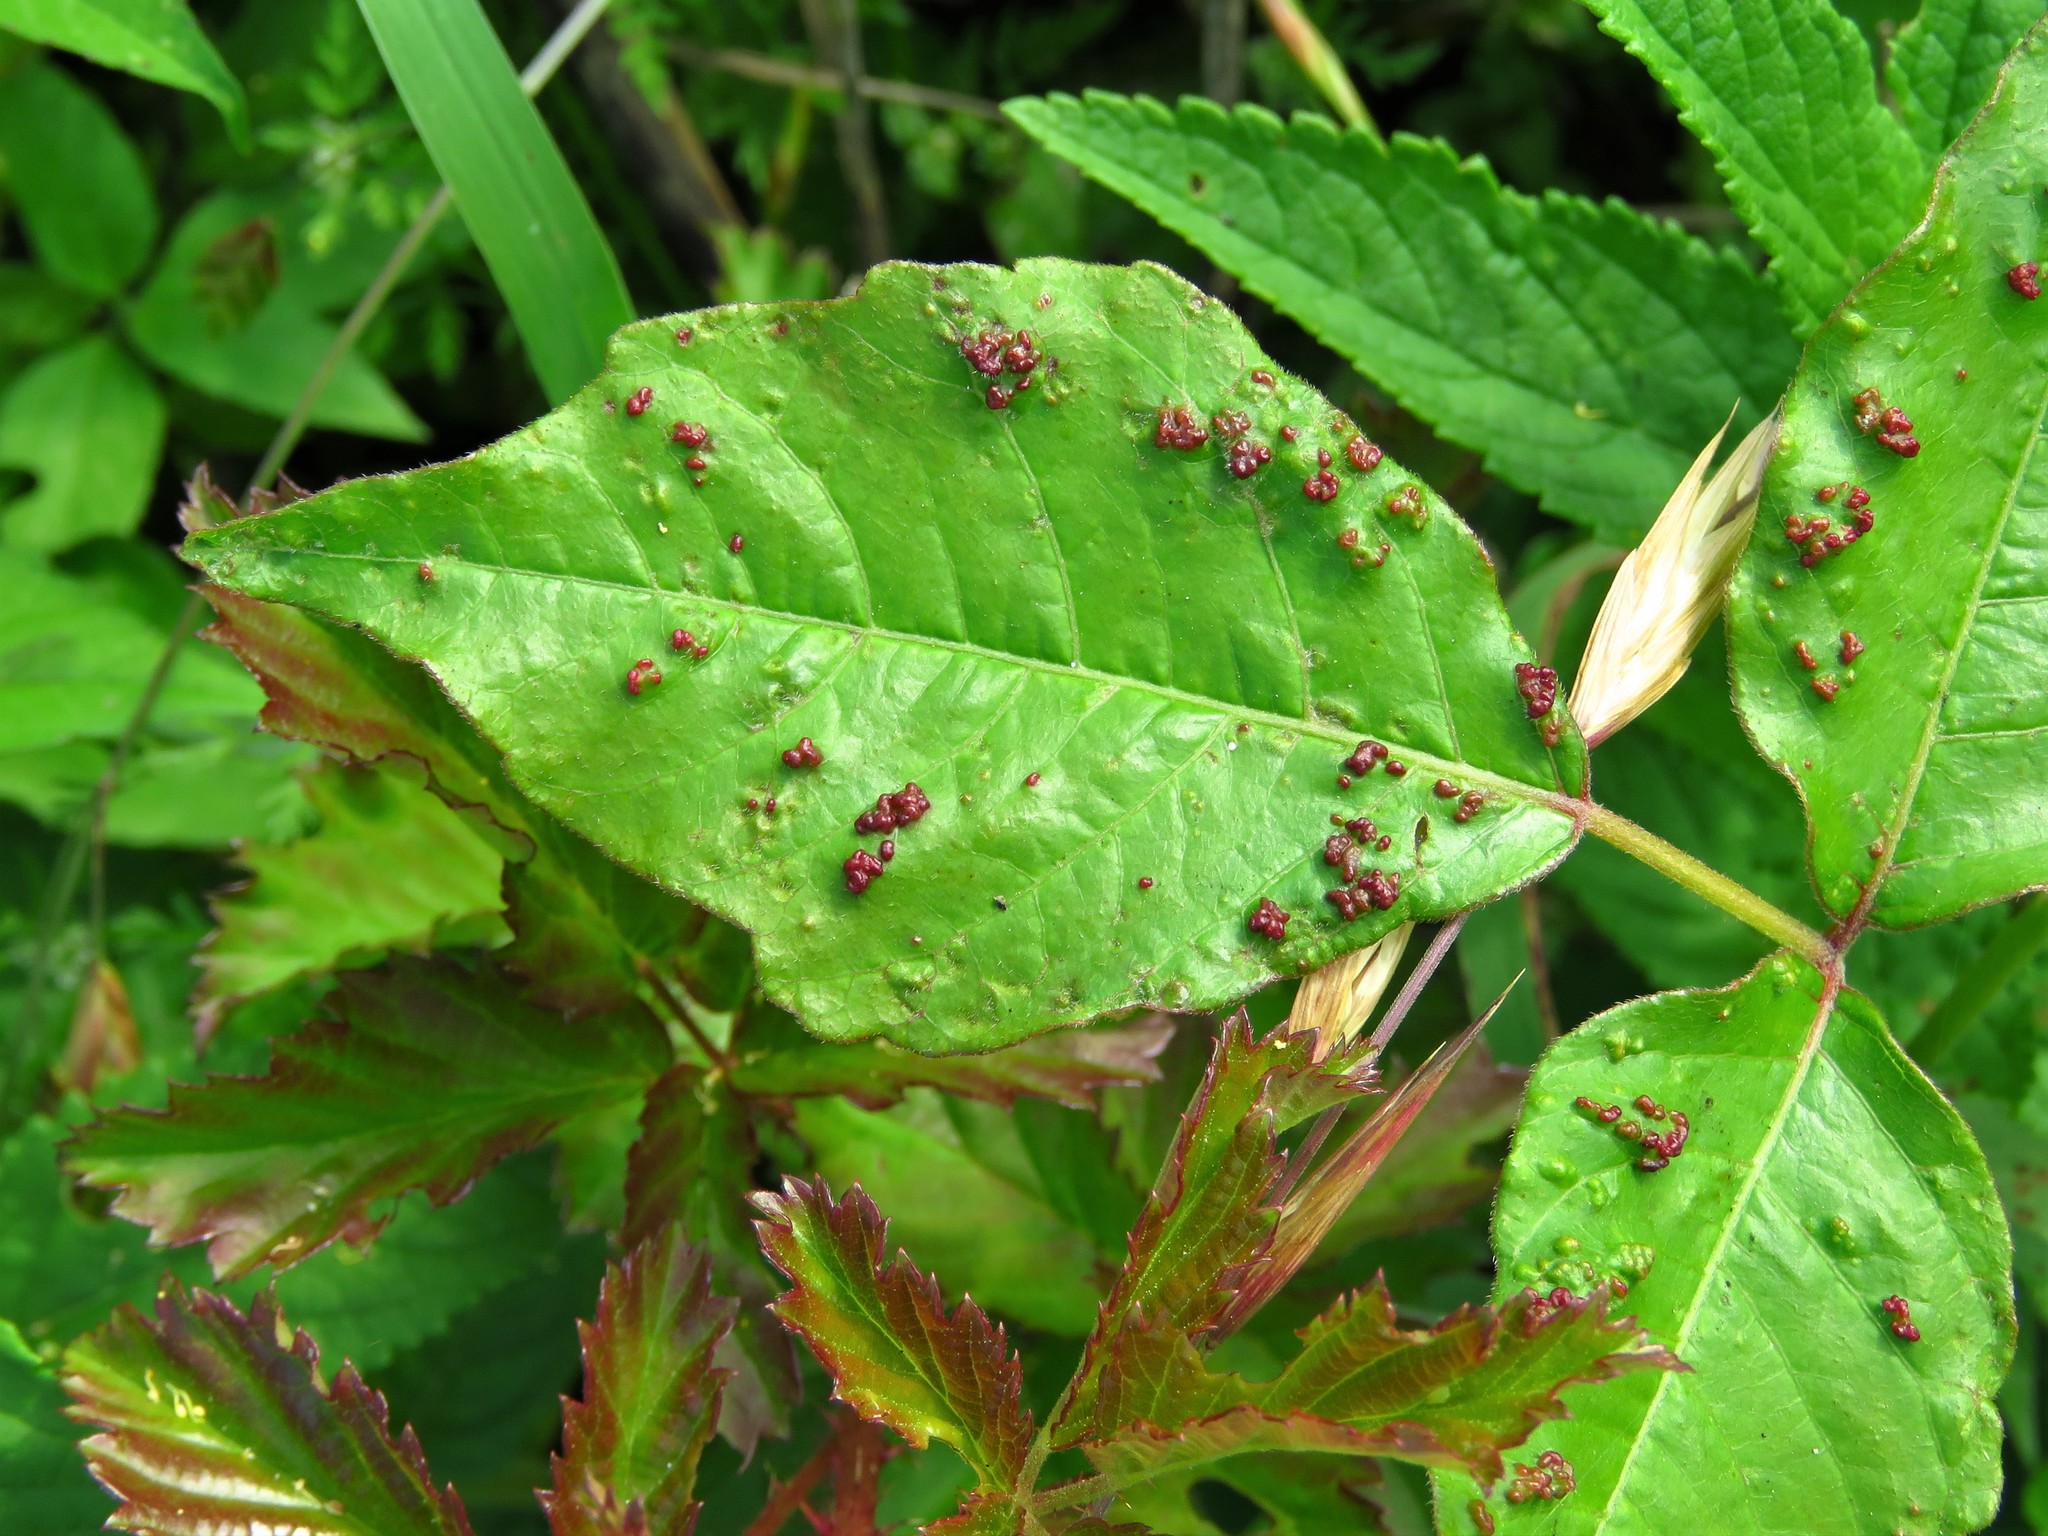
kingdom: Animalia
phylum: Arthropoda
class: Arachnida
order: Trombidiformes
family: Eriophyidae
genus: Aculops
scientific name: Aculops
